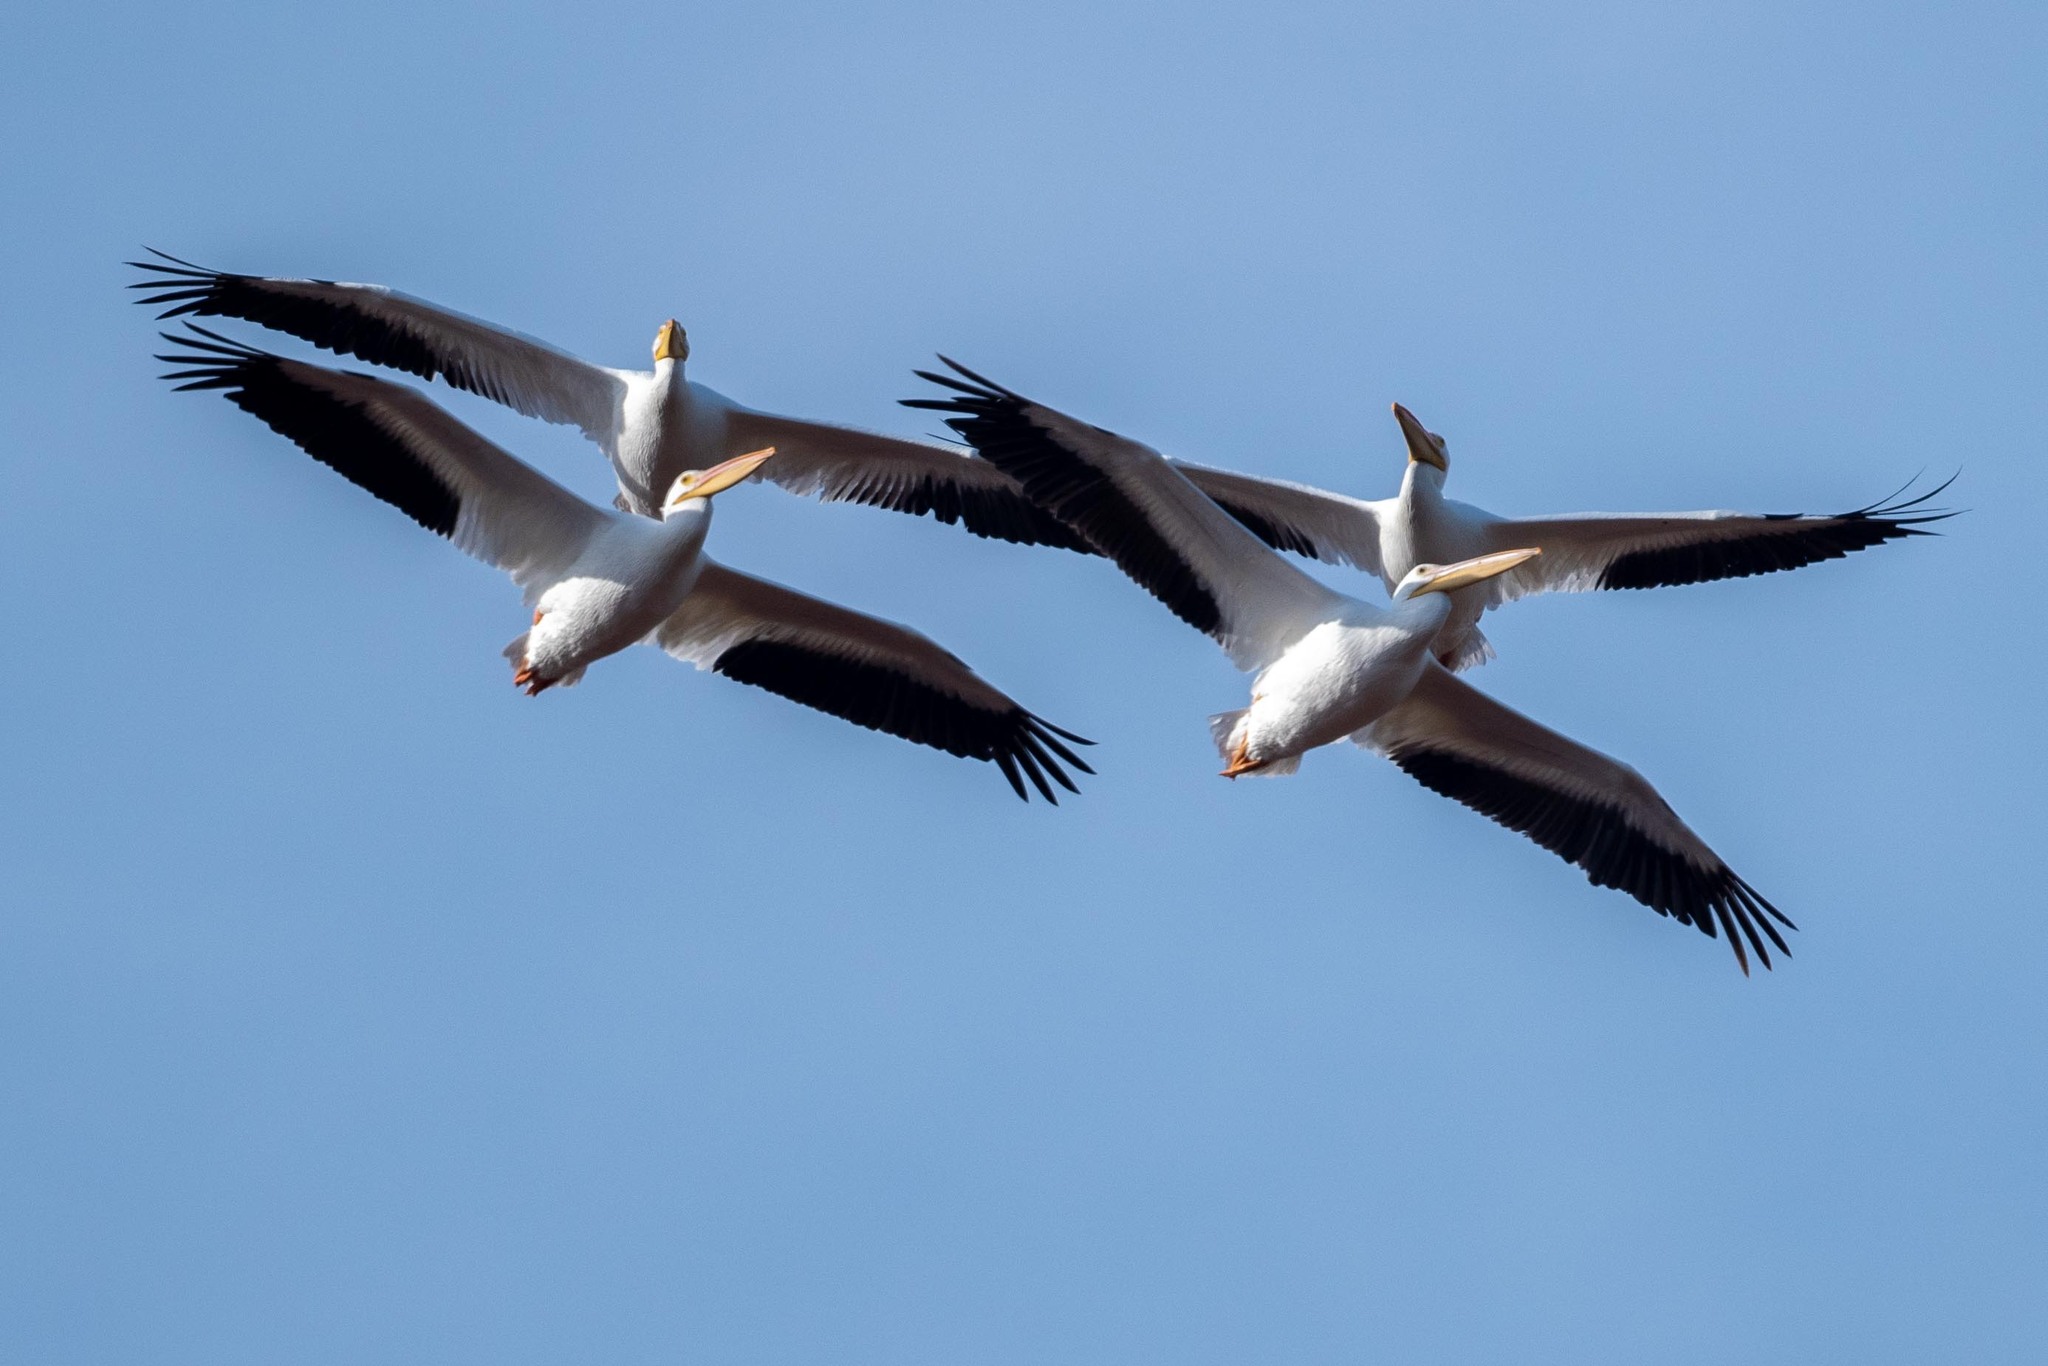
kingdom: Animalia
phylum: Chordata
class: Aves
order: Pelecaniformes
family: Pelecanidae
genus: Pelecanus
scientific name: Pelecanus erythrorhynchos
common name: American white pelican
